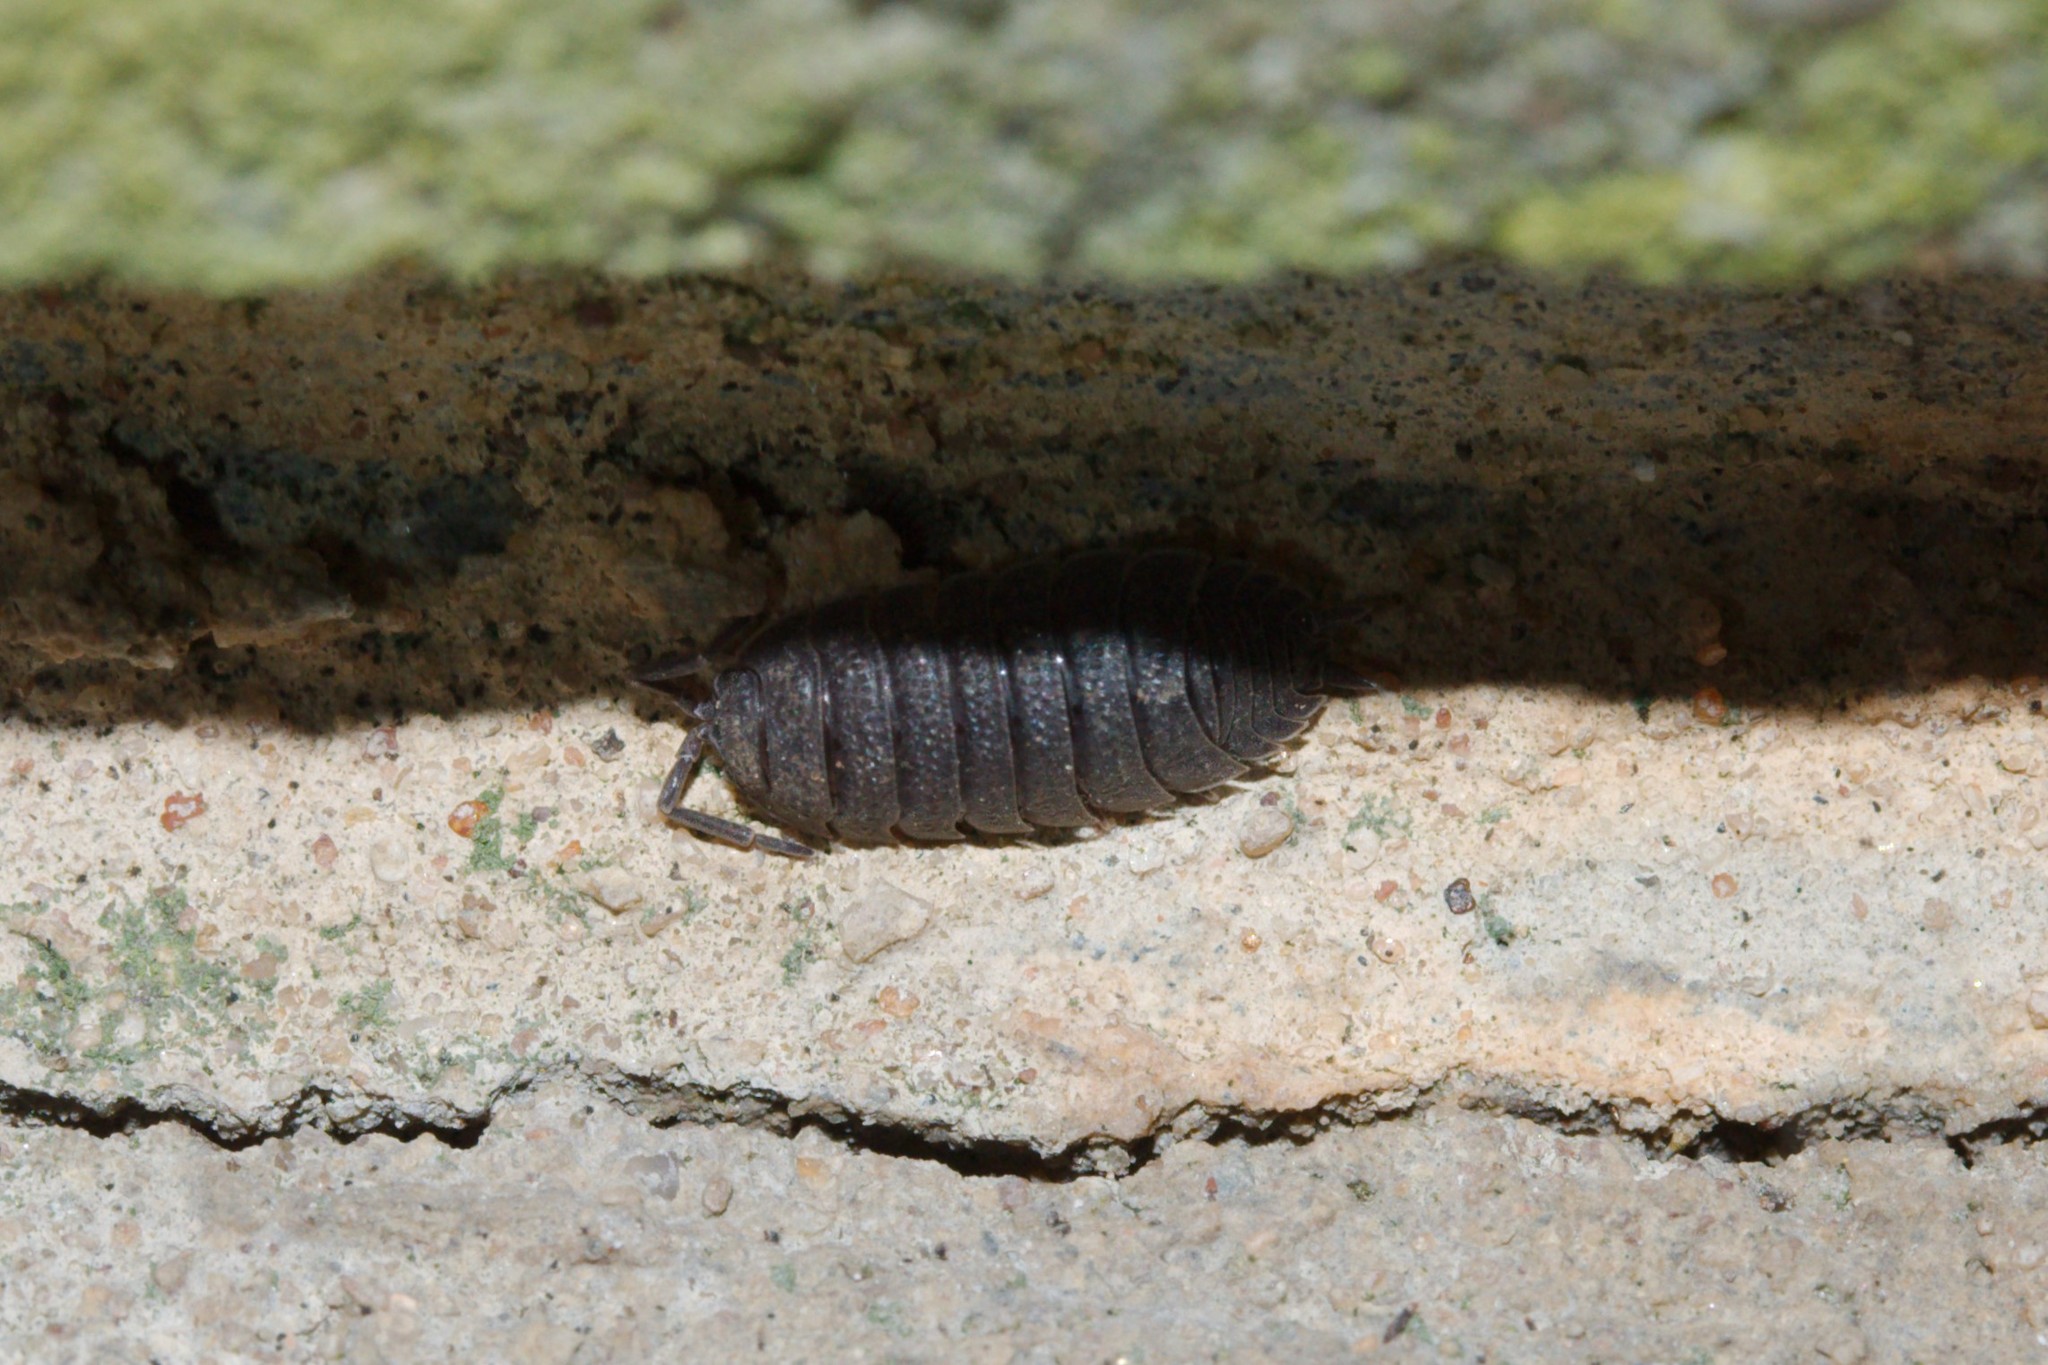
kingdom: Animalia
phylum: Arthropoda
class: Malacostraca
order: Isopoda
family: Porcellionidae
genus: Porcellio
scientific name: Porcellio scaber
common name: Common rough woodlouse
